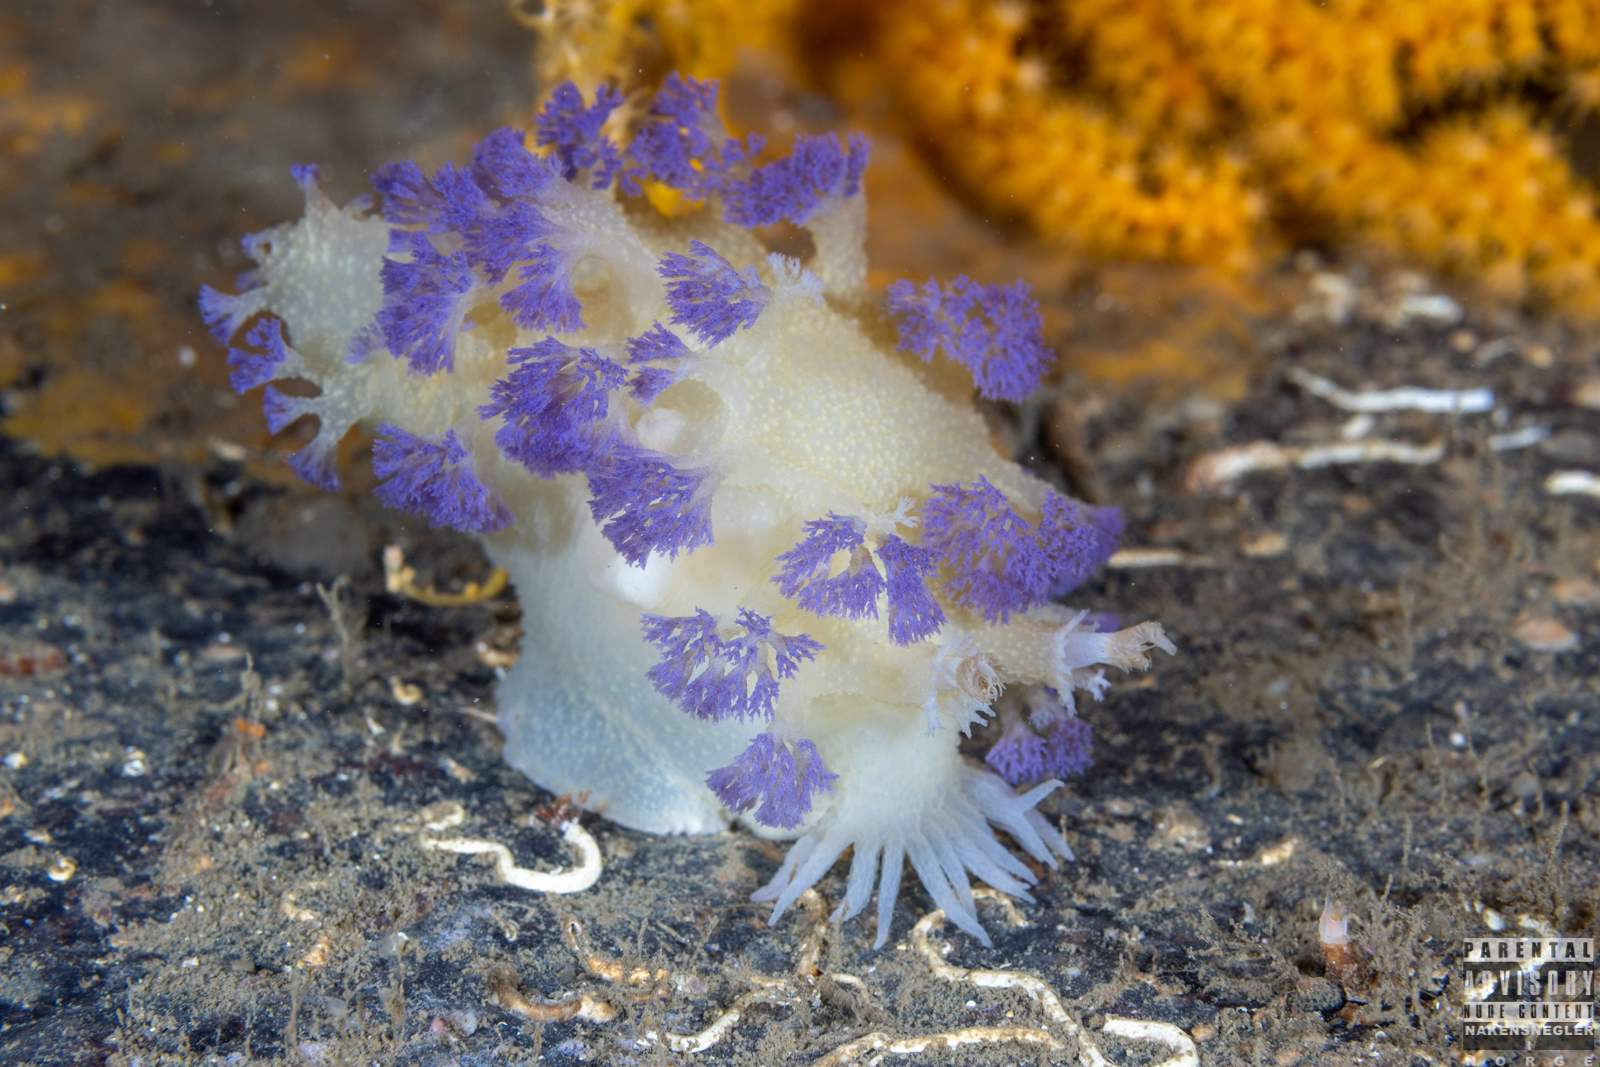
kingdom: Animalia
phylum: Mollusca
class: Gastropoda
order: Nudibranchia
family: Tritoniidae
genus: Tritonia
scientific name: Tritonia griegi
